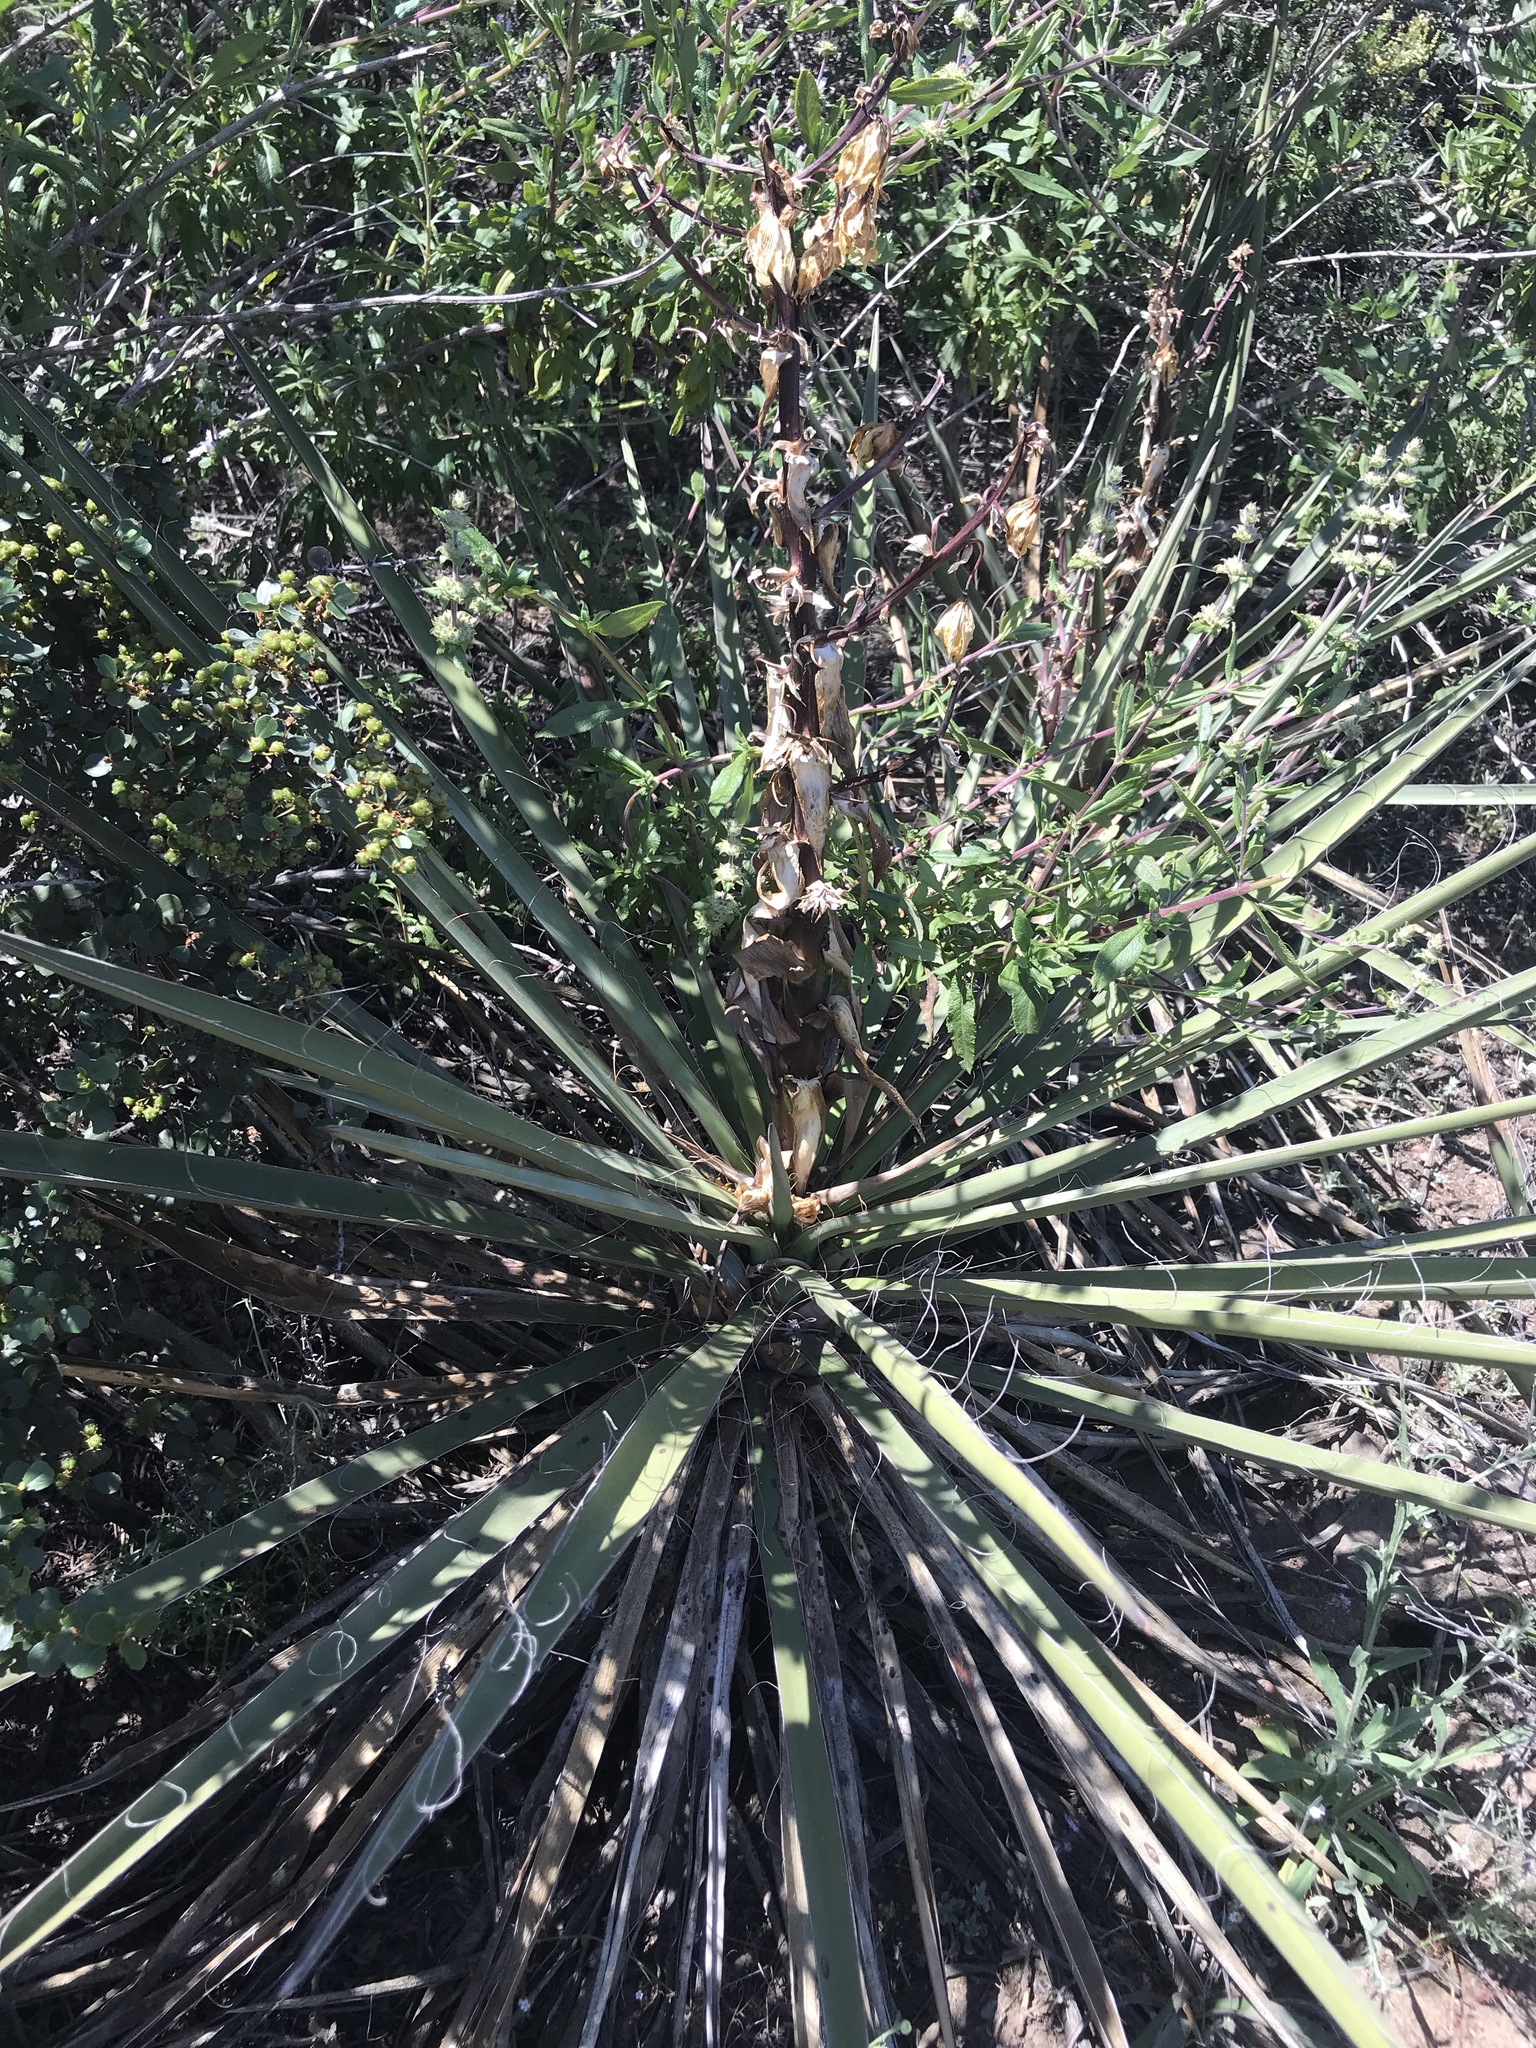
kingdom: Plantae
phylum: Tracheophyta
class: Liliopsida
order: Asparagales
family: Asparagaceae
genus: Yucca
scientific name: Yucca schidigera
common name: Mojave yucca
